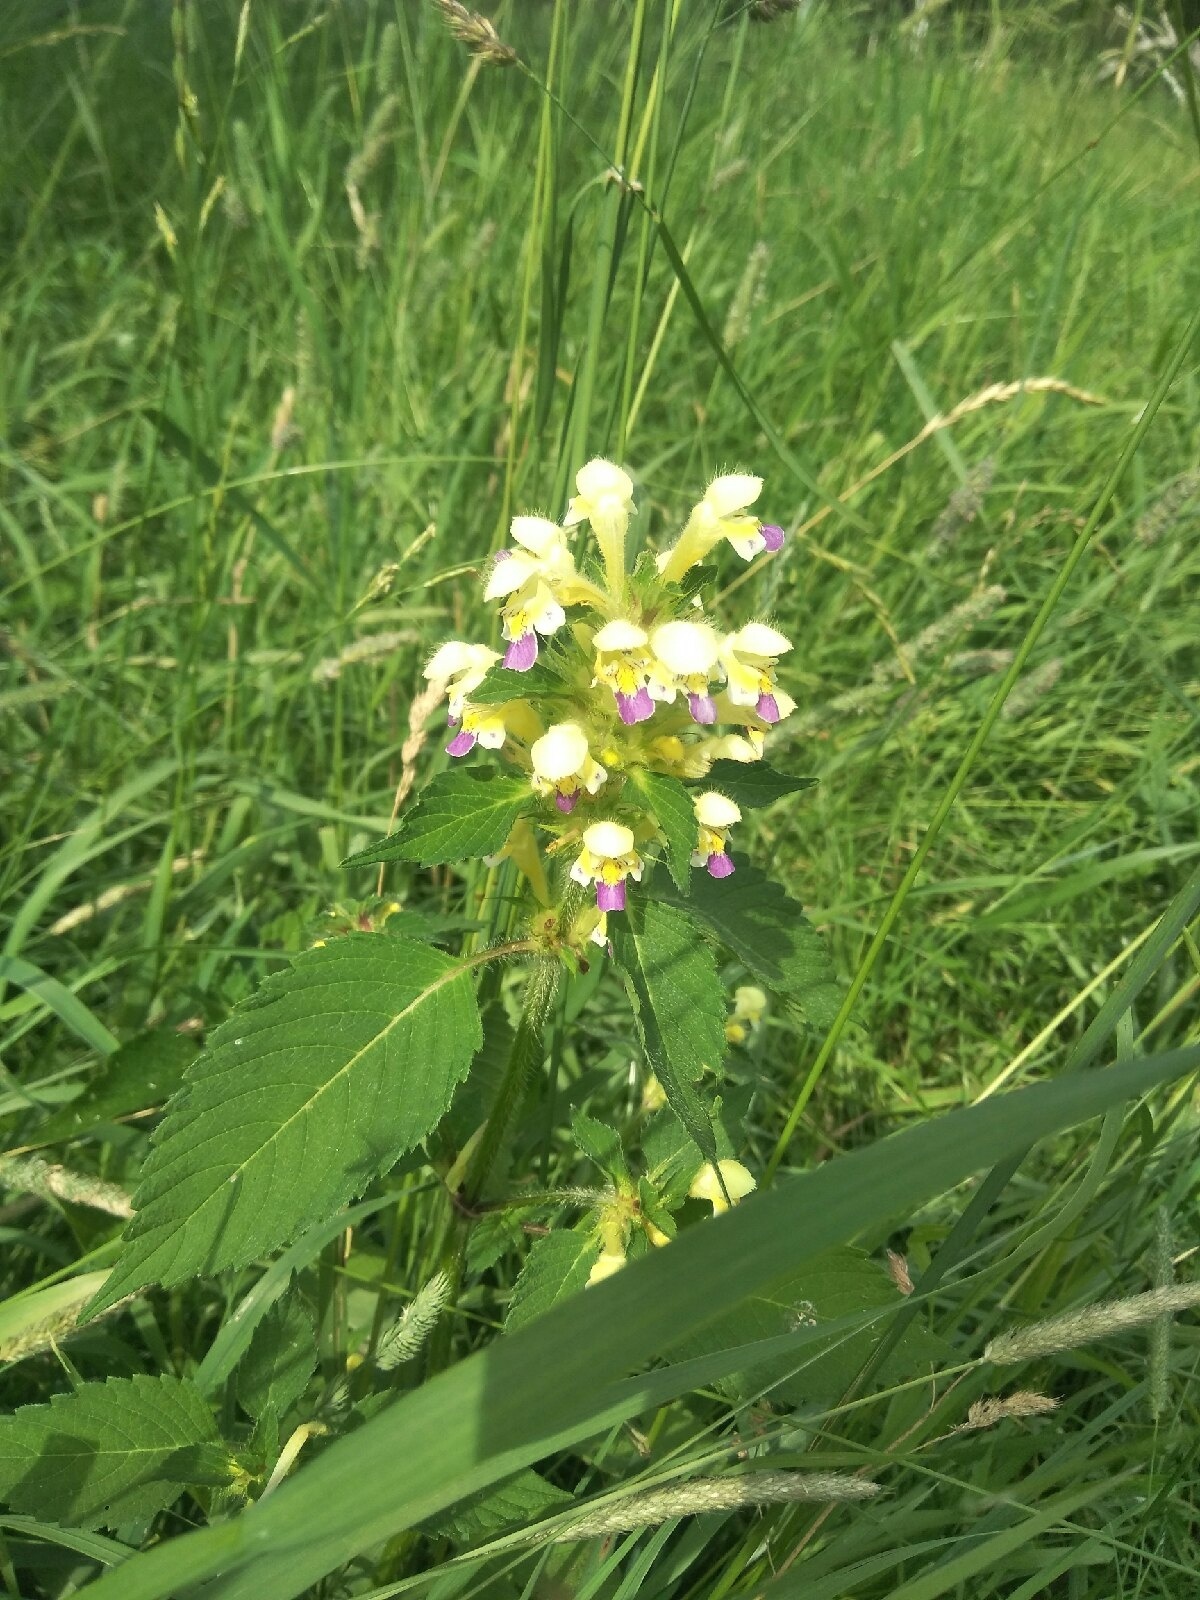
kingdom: Plantae
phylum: Tracheophyta
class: Magnoliopsida
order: Lamiales
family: Lamiaceae
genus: Galeopsis
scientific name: Galeopsis speciosa
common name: Large-flowered hemp-nettle
